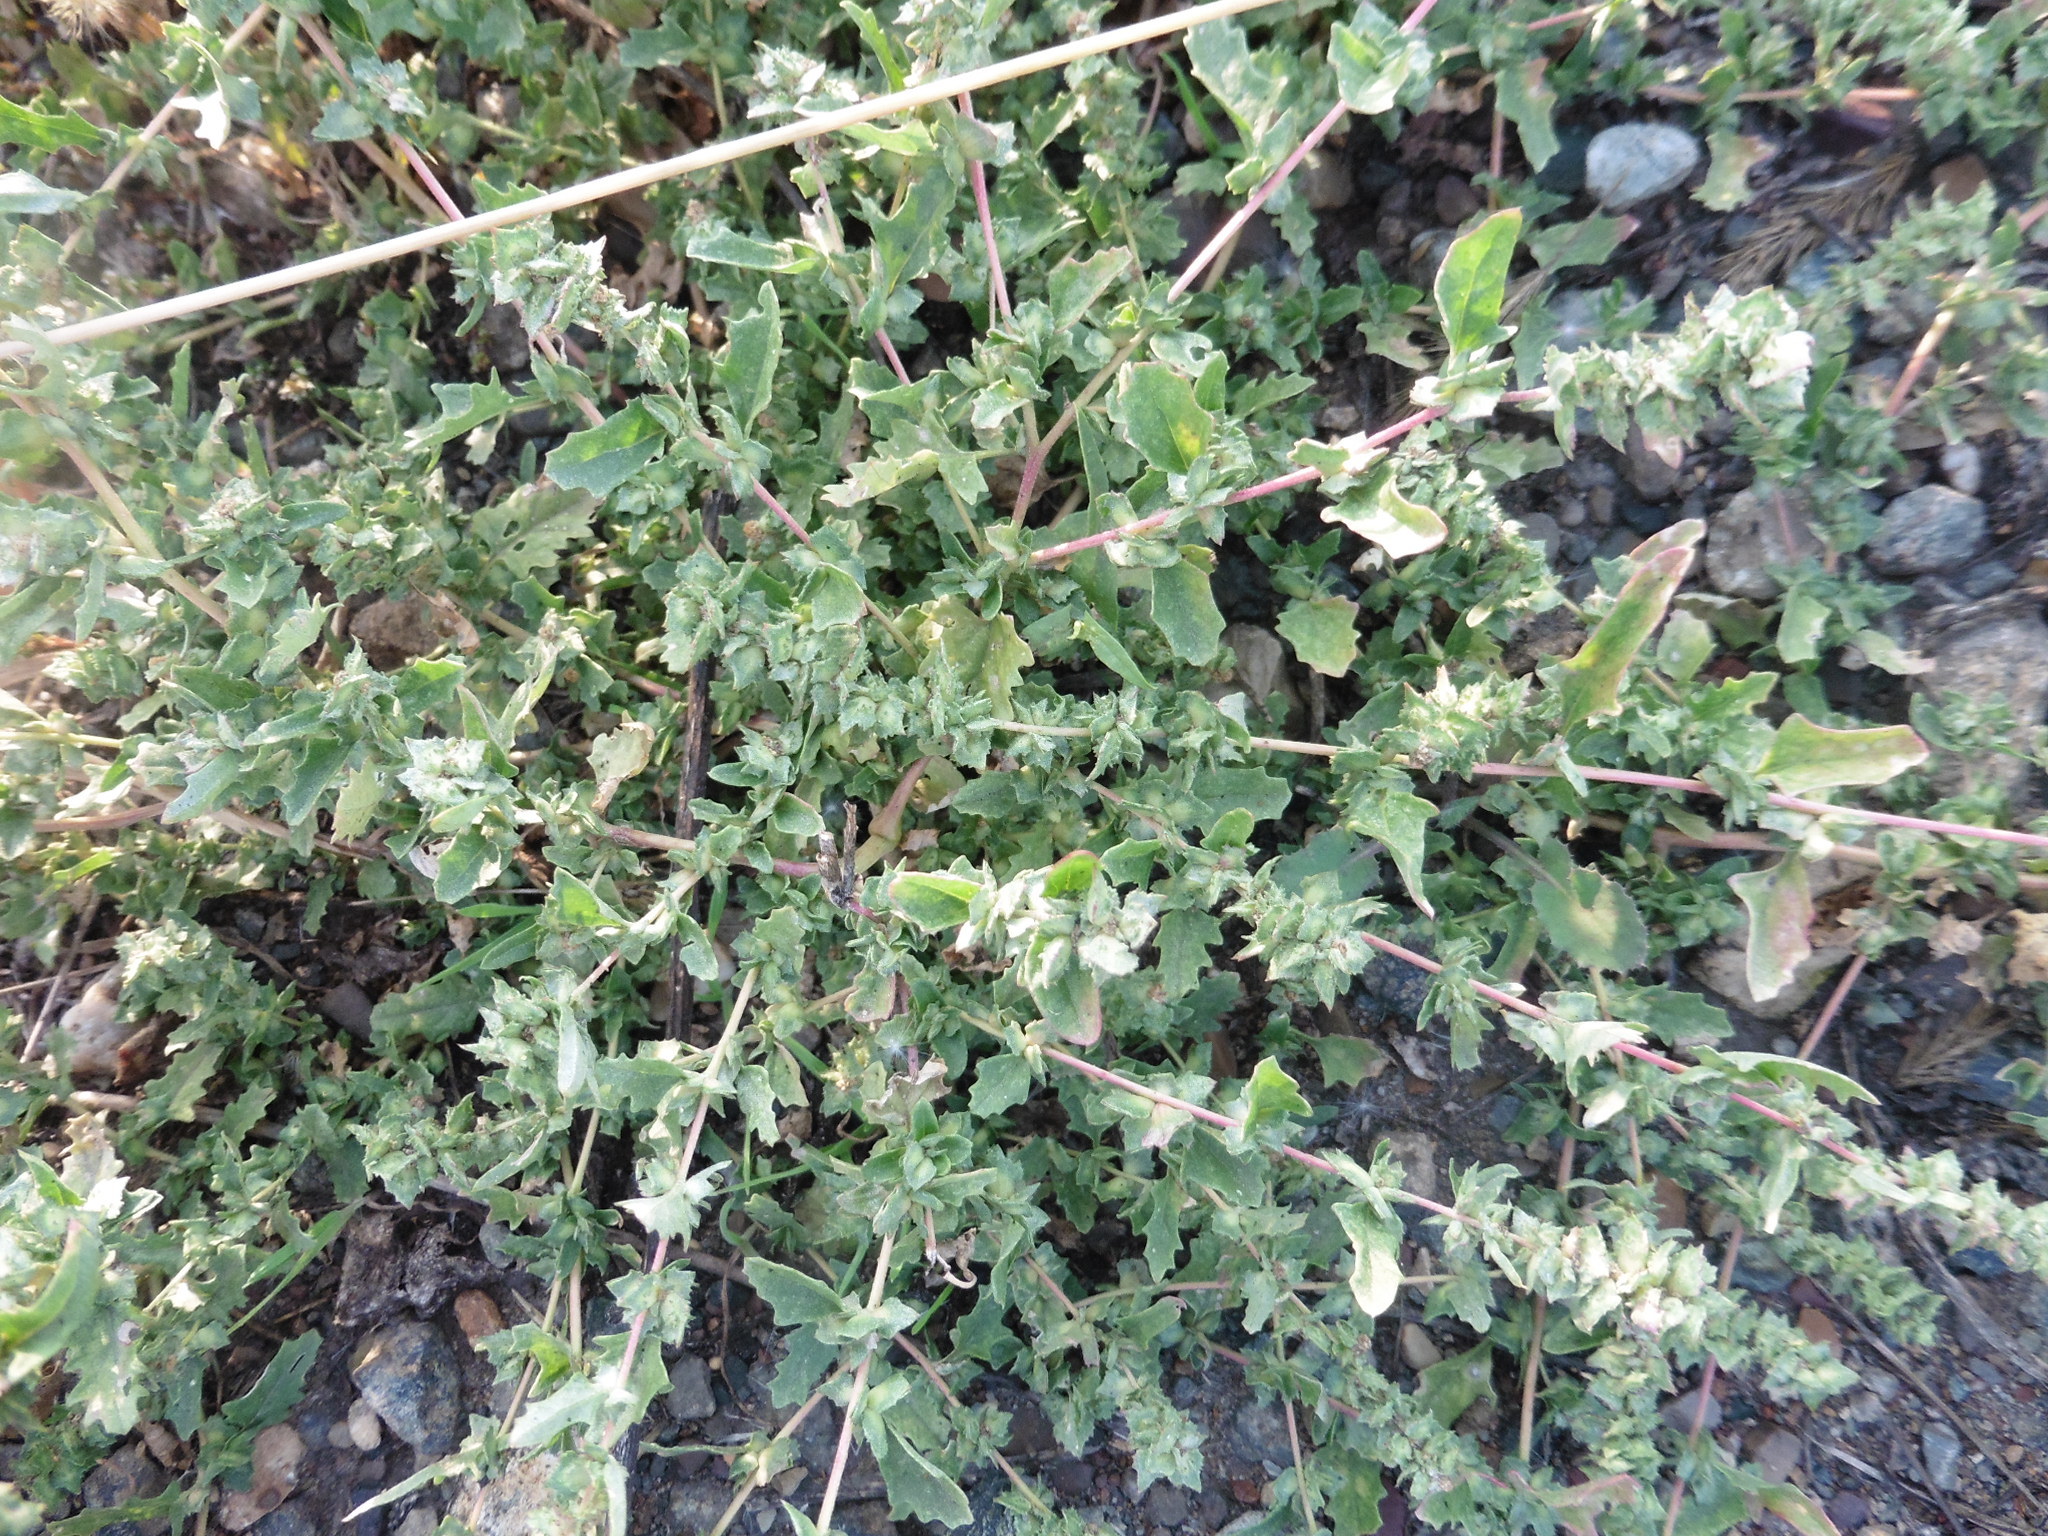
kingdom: Plantae
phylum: Tracheophyta
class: Magnoliopsida
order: Caryophyllales
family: Amaranthaceae
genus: Atriplex
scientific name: Atriplex tatarica
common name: Tatarian orache
